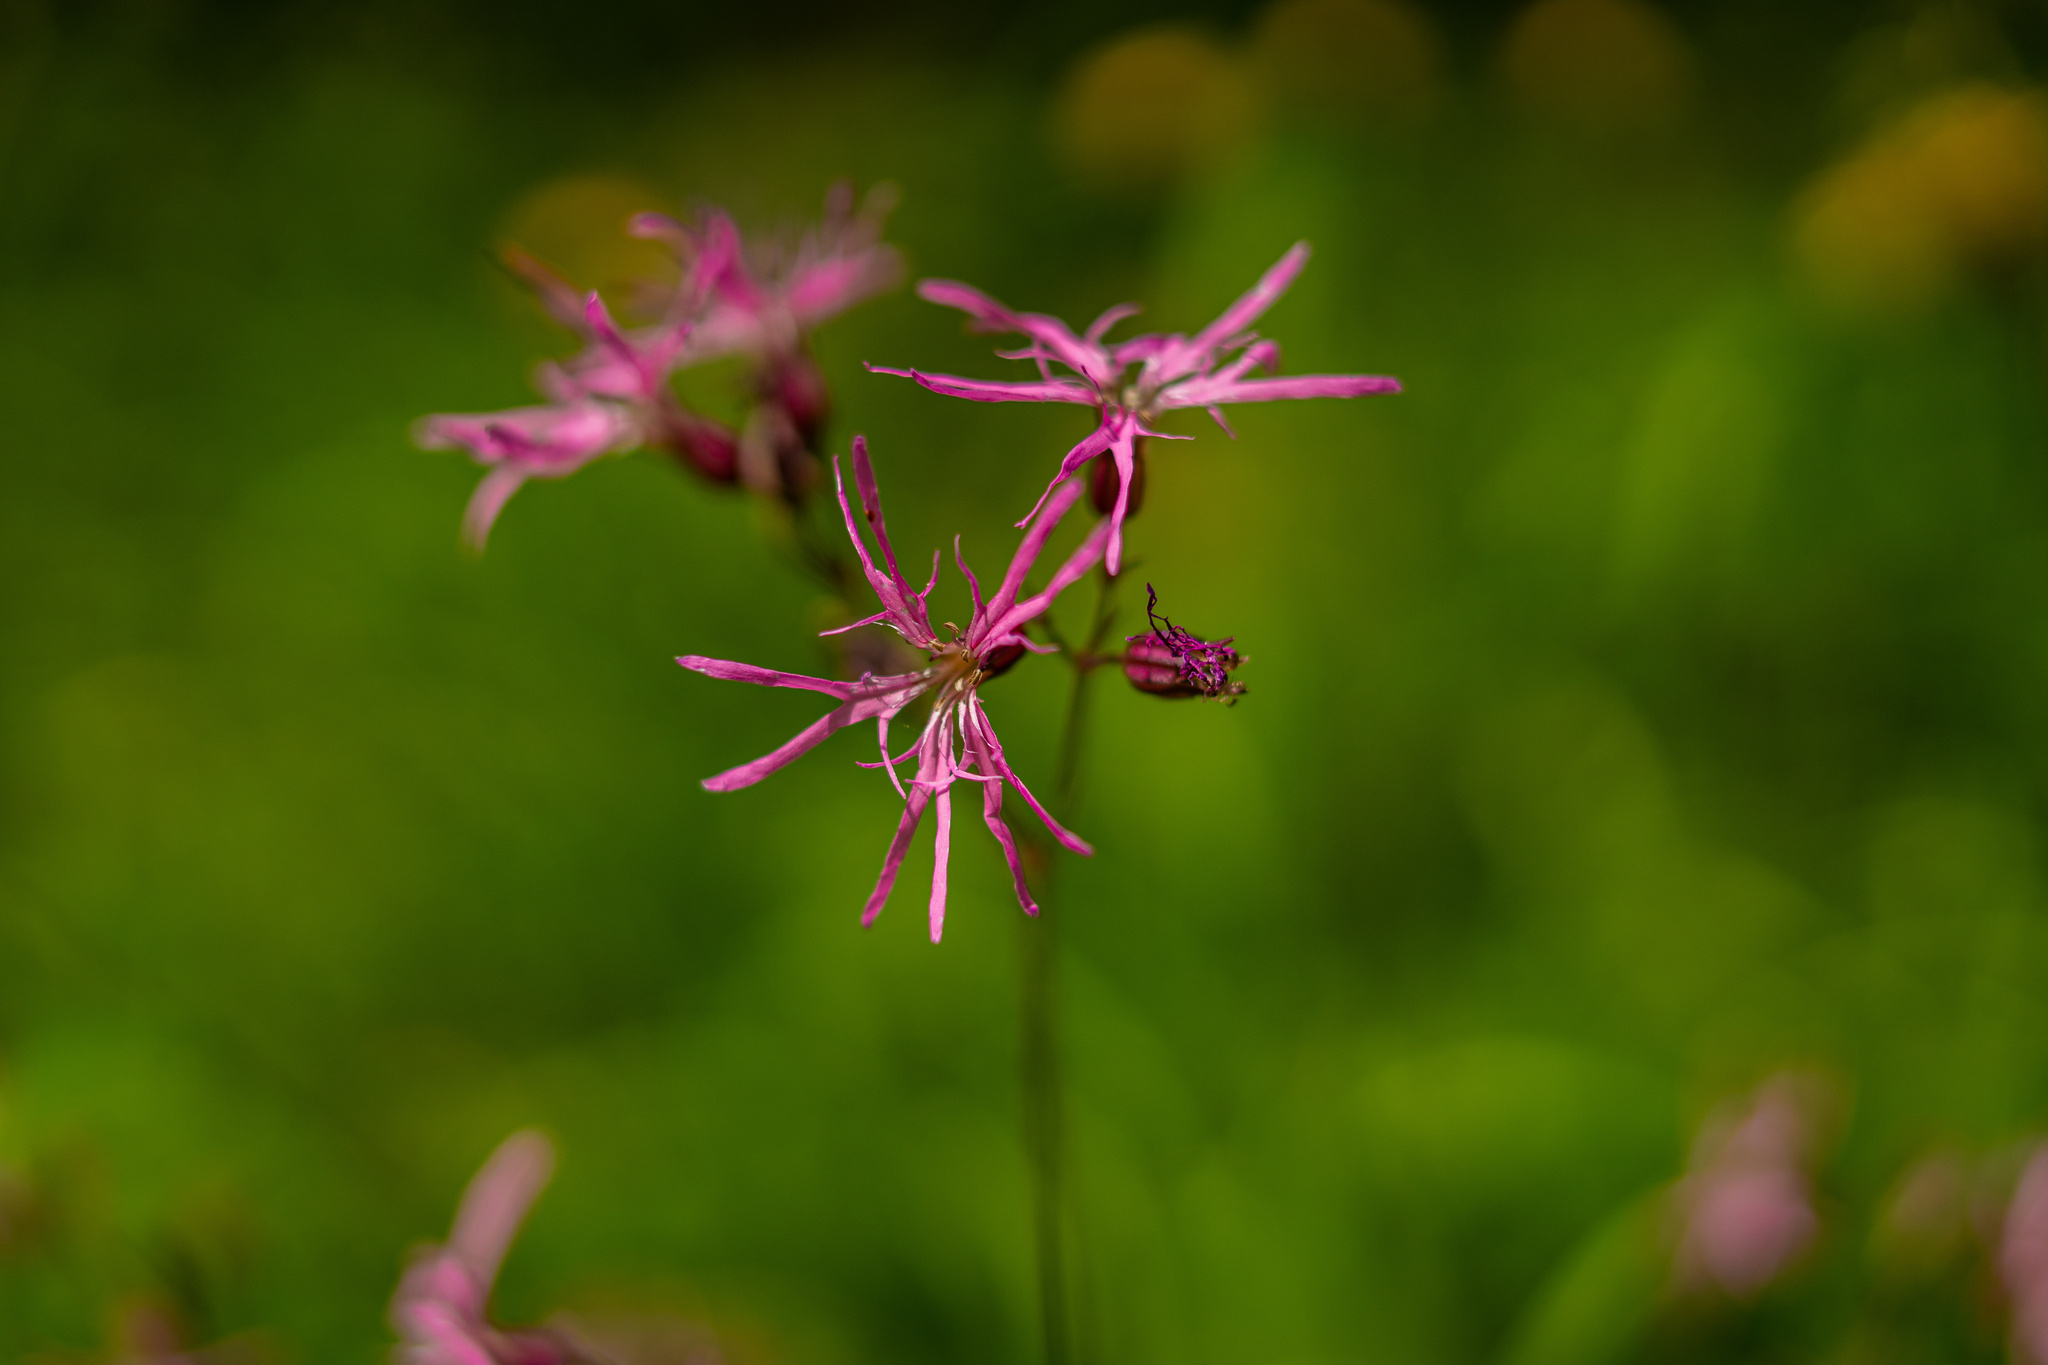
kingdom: Plantae
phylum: Tracheophyta
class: Magnoliopsida
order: Caryophyllales
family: Caryophyllaceae
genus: Silene
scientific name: Silene flos-cuculi
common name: Ragged-robin
